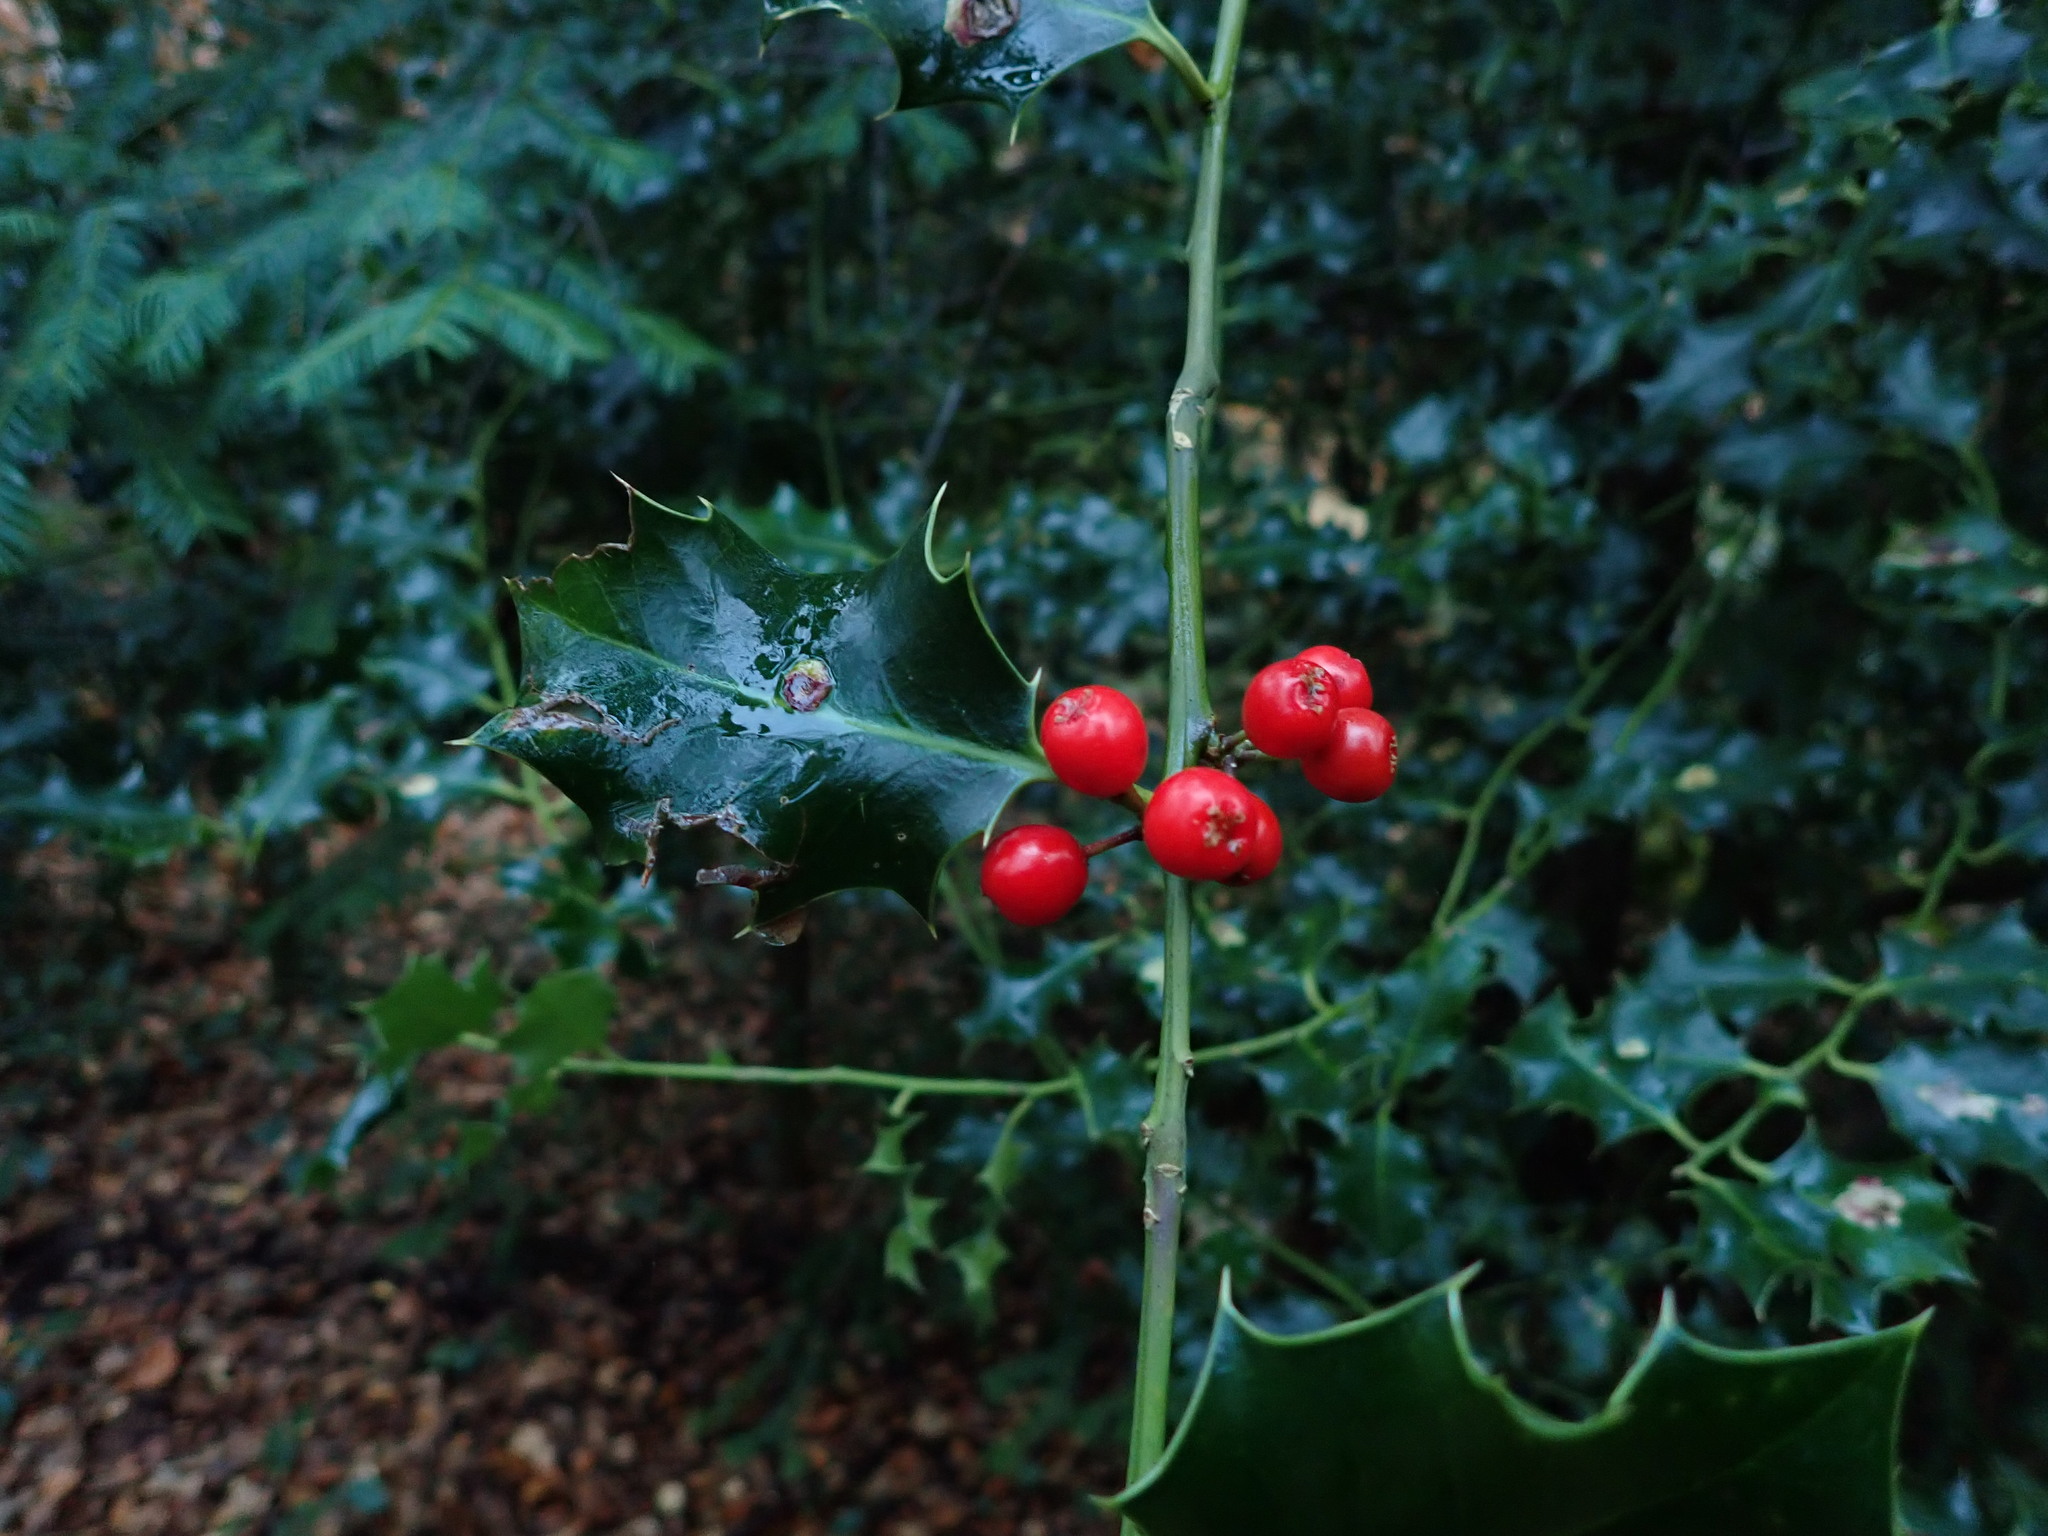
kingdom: Plantae
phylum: Tracheophyta
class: Magnoliopsida
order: Aquifoliales
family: Aquifoliaceae
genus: Ilex
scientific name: Ilex aquifolium
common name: English holly
